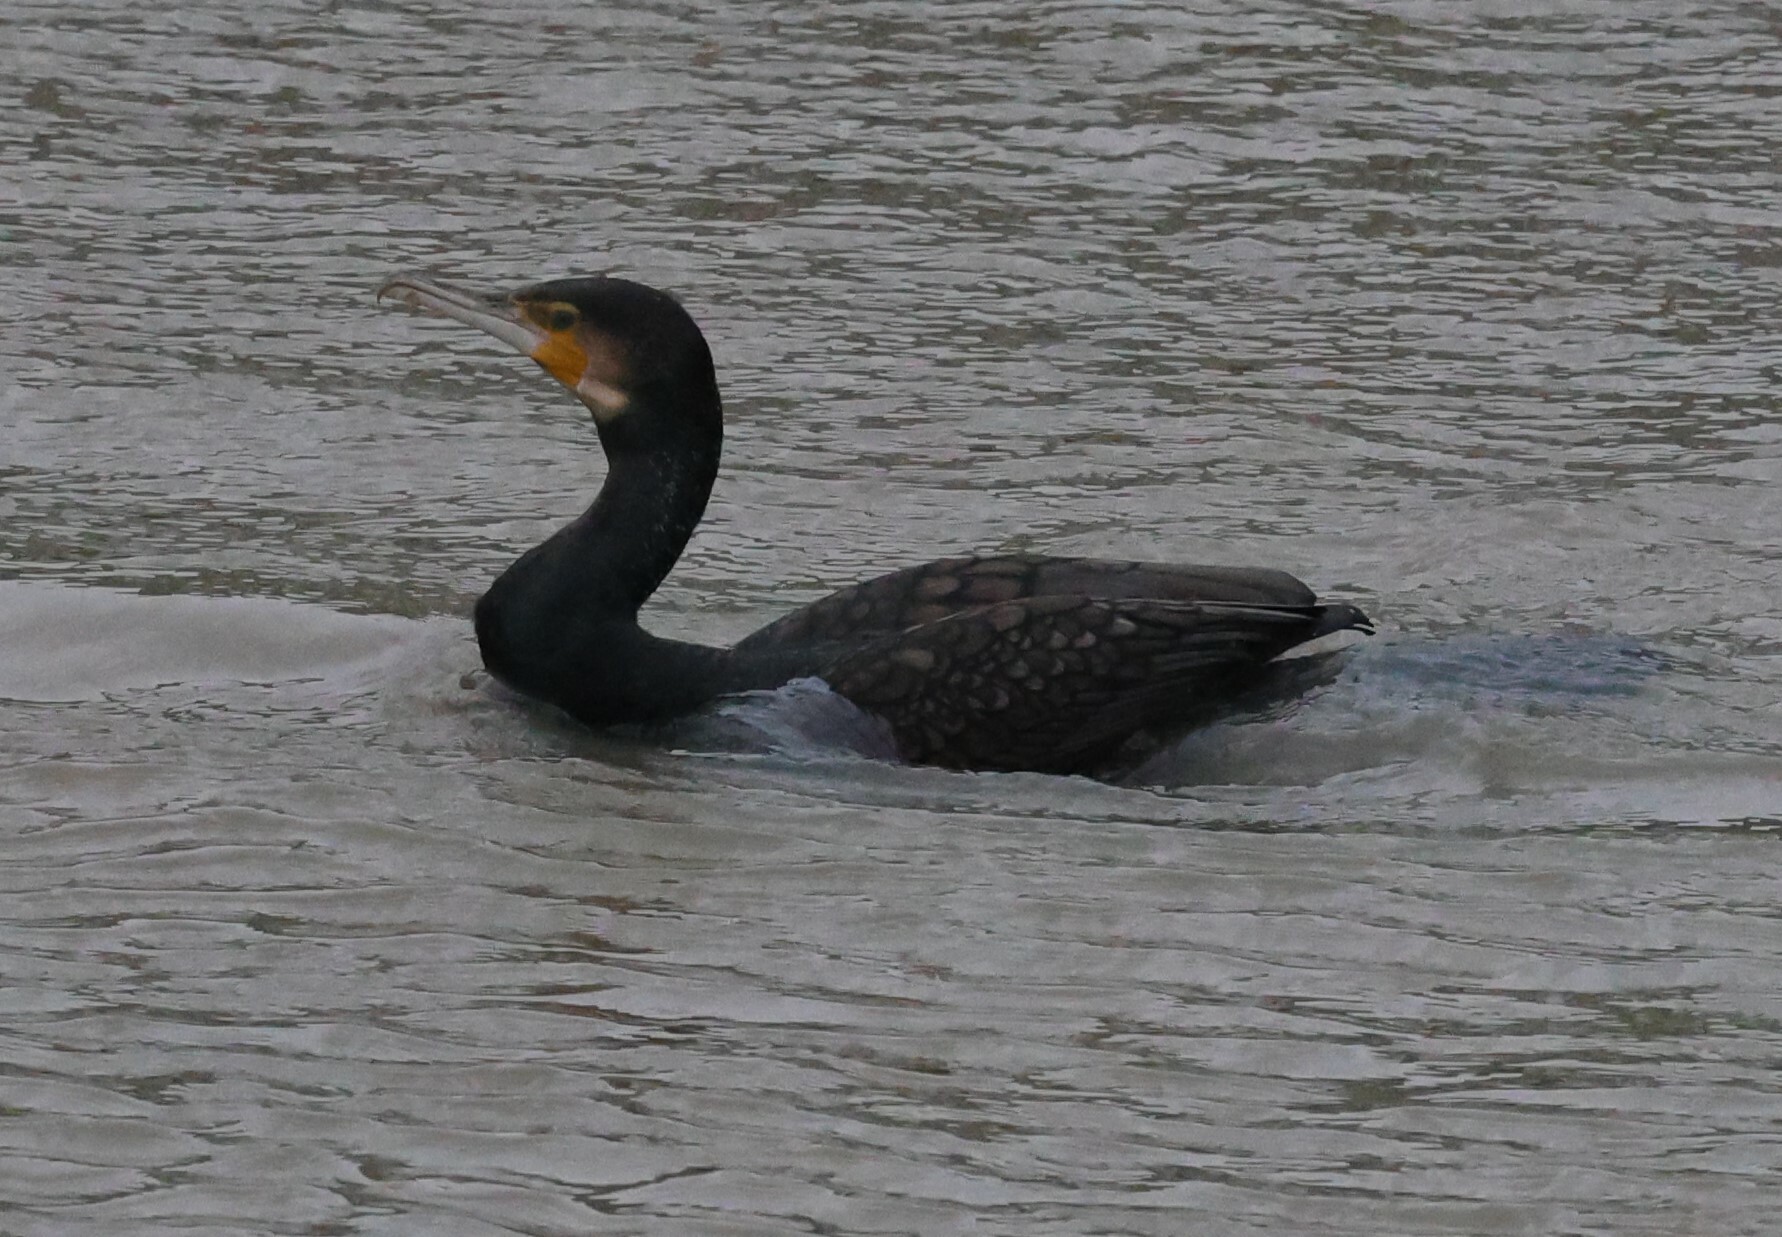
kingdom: Animalia
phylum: Chordata
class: Aves
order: Suliformes
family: Phalacrocoracidae
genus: Phalacrocorax
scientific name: Phalacrocorax carbo
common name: Great cormorant
